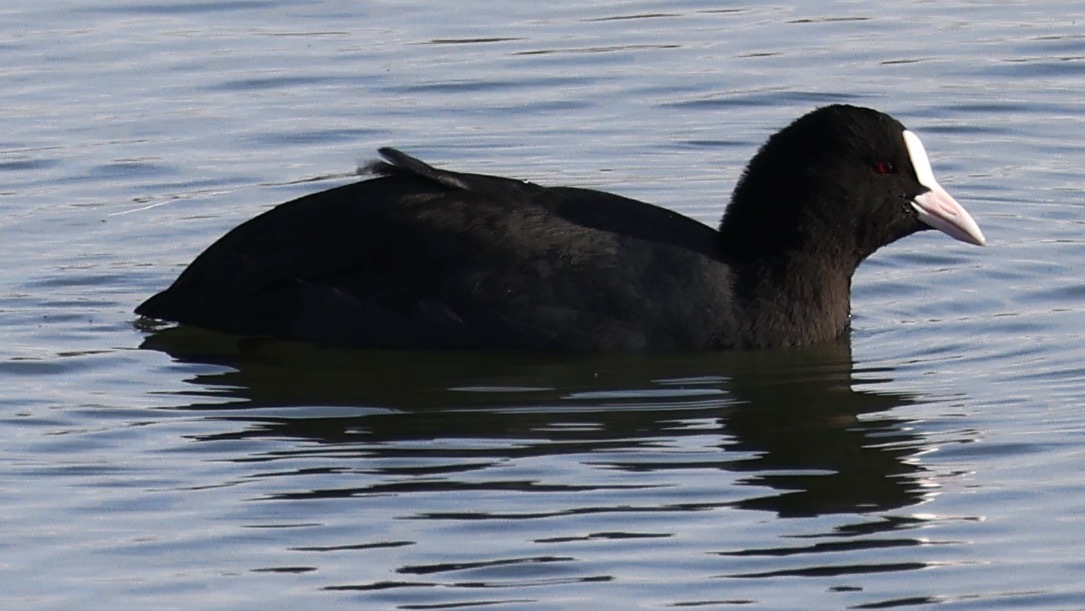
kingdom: Animalia
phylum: Chordata
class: Aves
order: Gruiformes
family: Rallidae
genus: Fulica
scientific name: Fulica atra
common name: Eurasian coot
